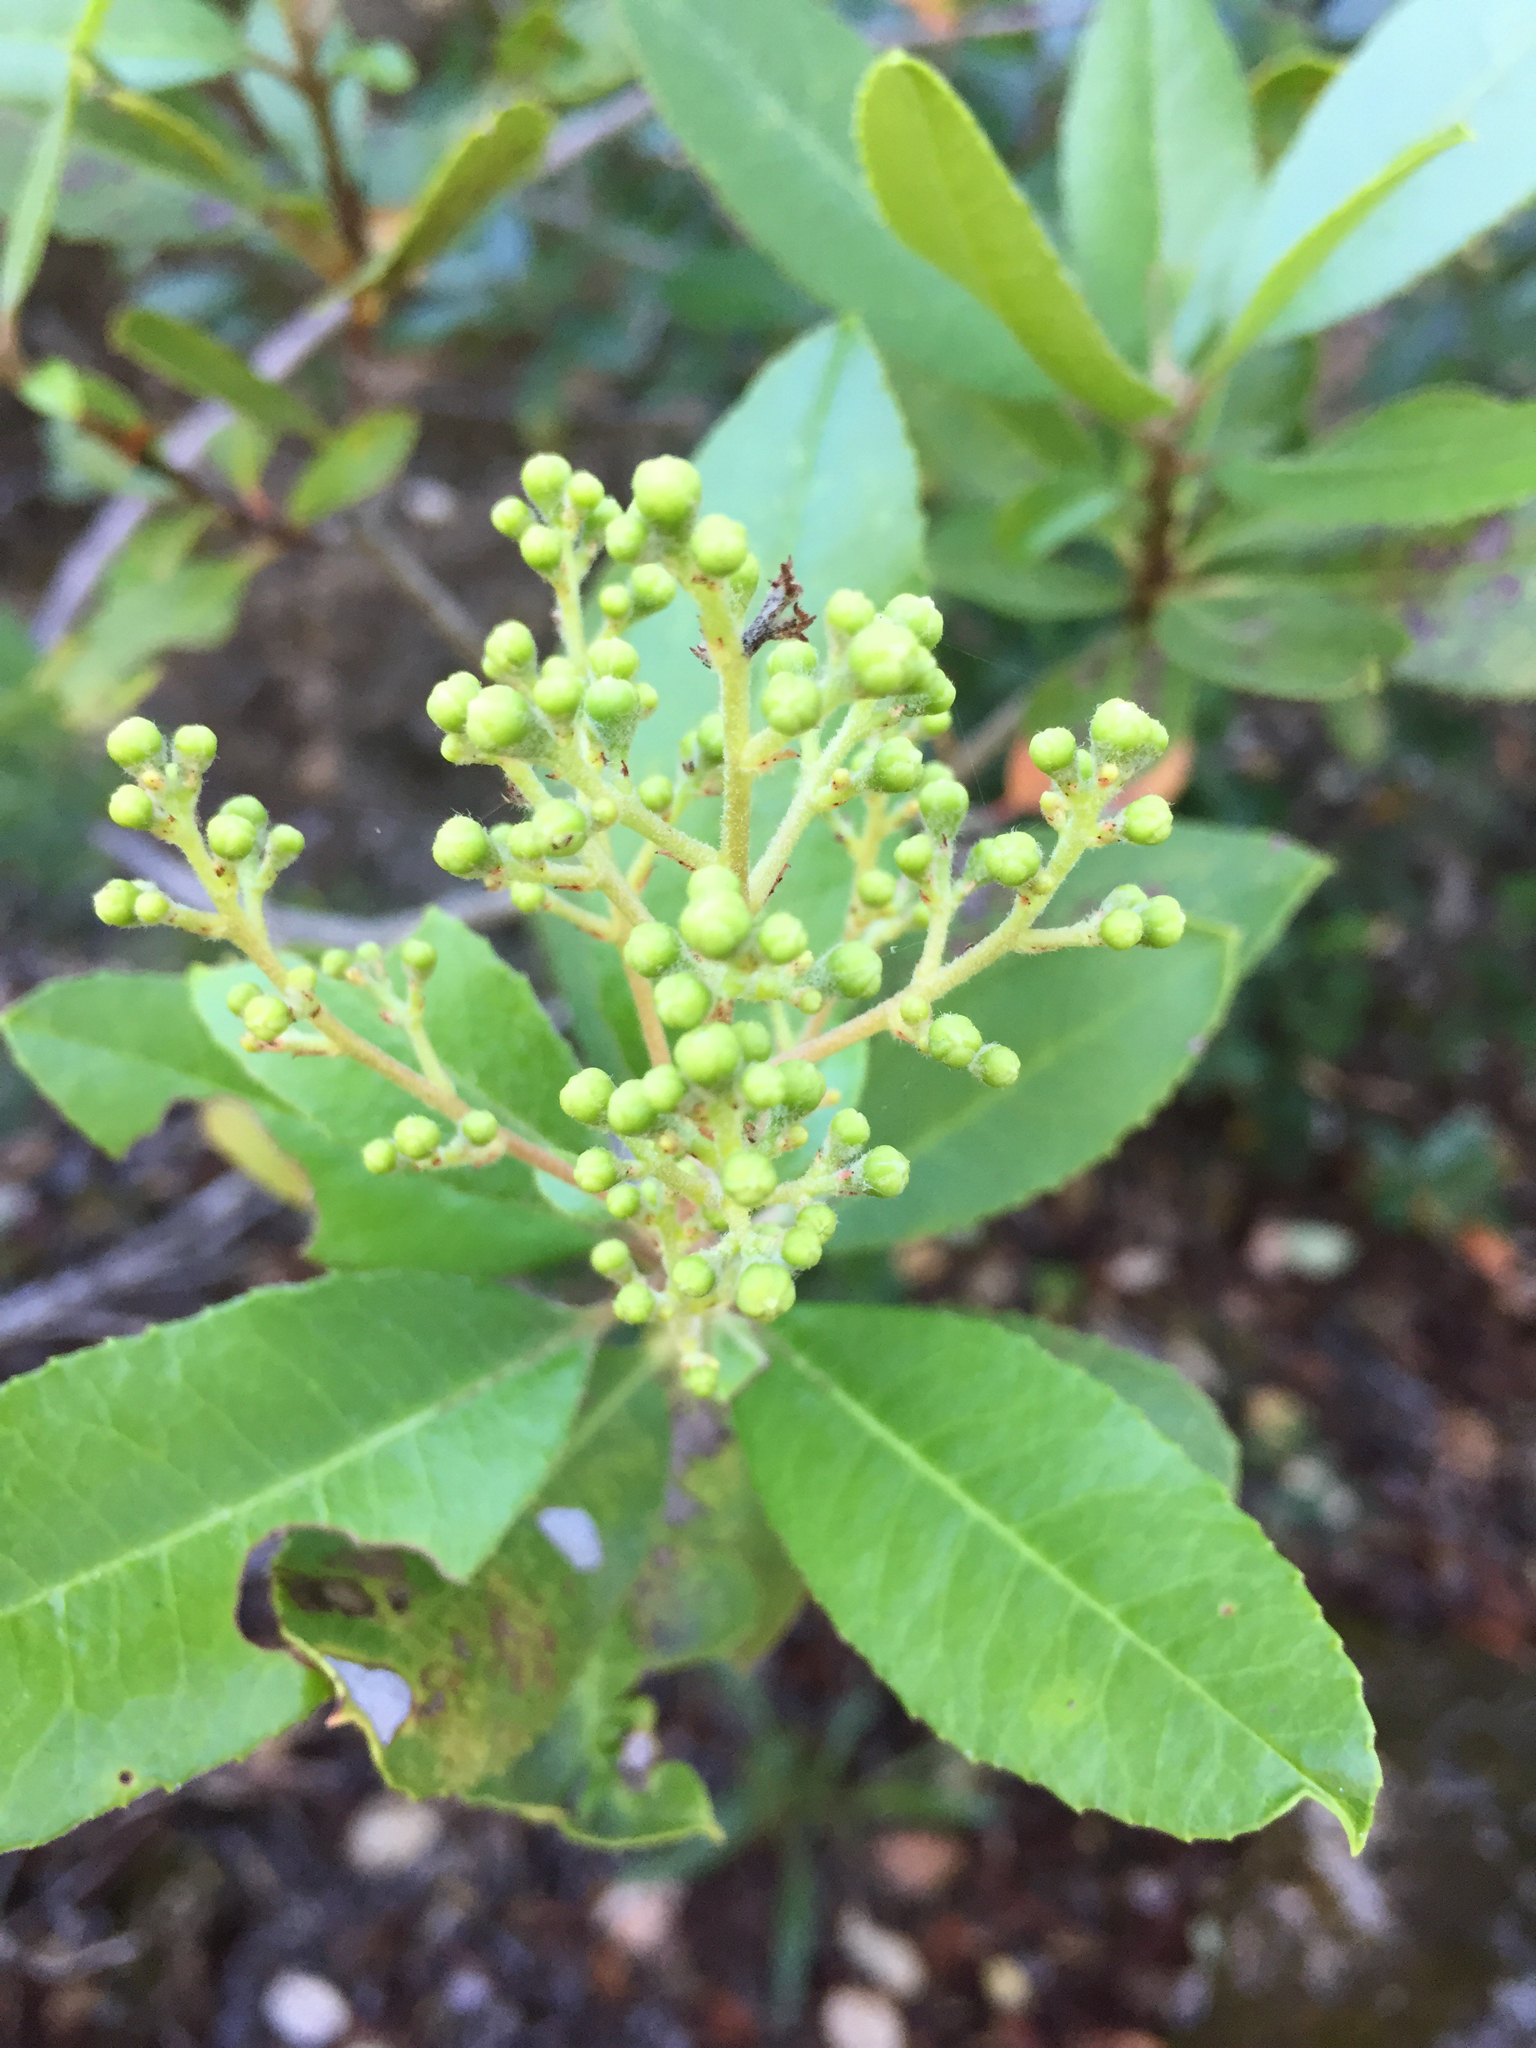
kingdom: Plantae
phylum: Tracheophyta
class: Magnoliopsida
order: Rosales
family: Rosaceae
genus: Heteromeles
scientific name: Heteromeles arbutifolia
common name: California-holly
